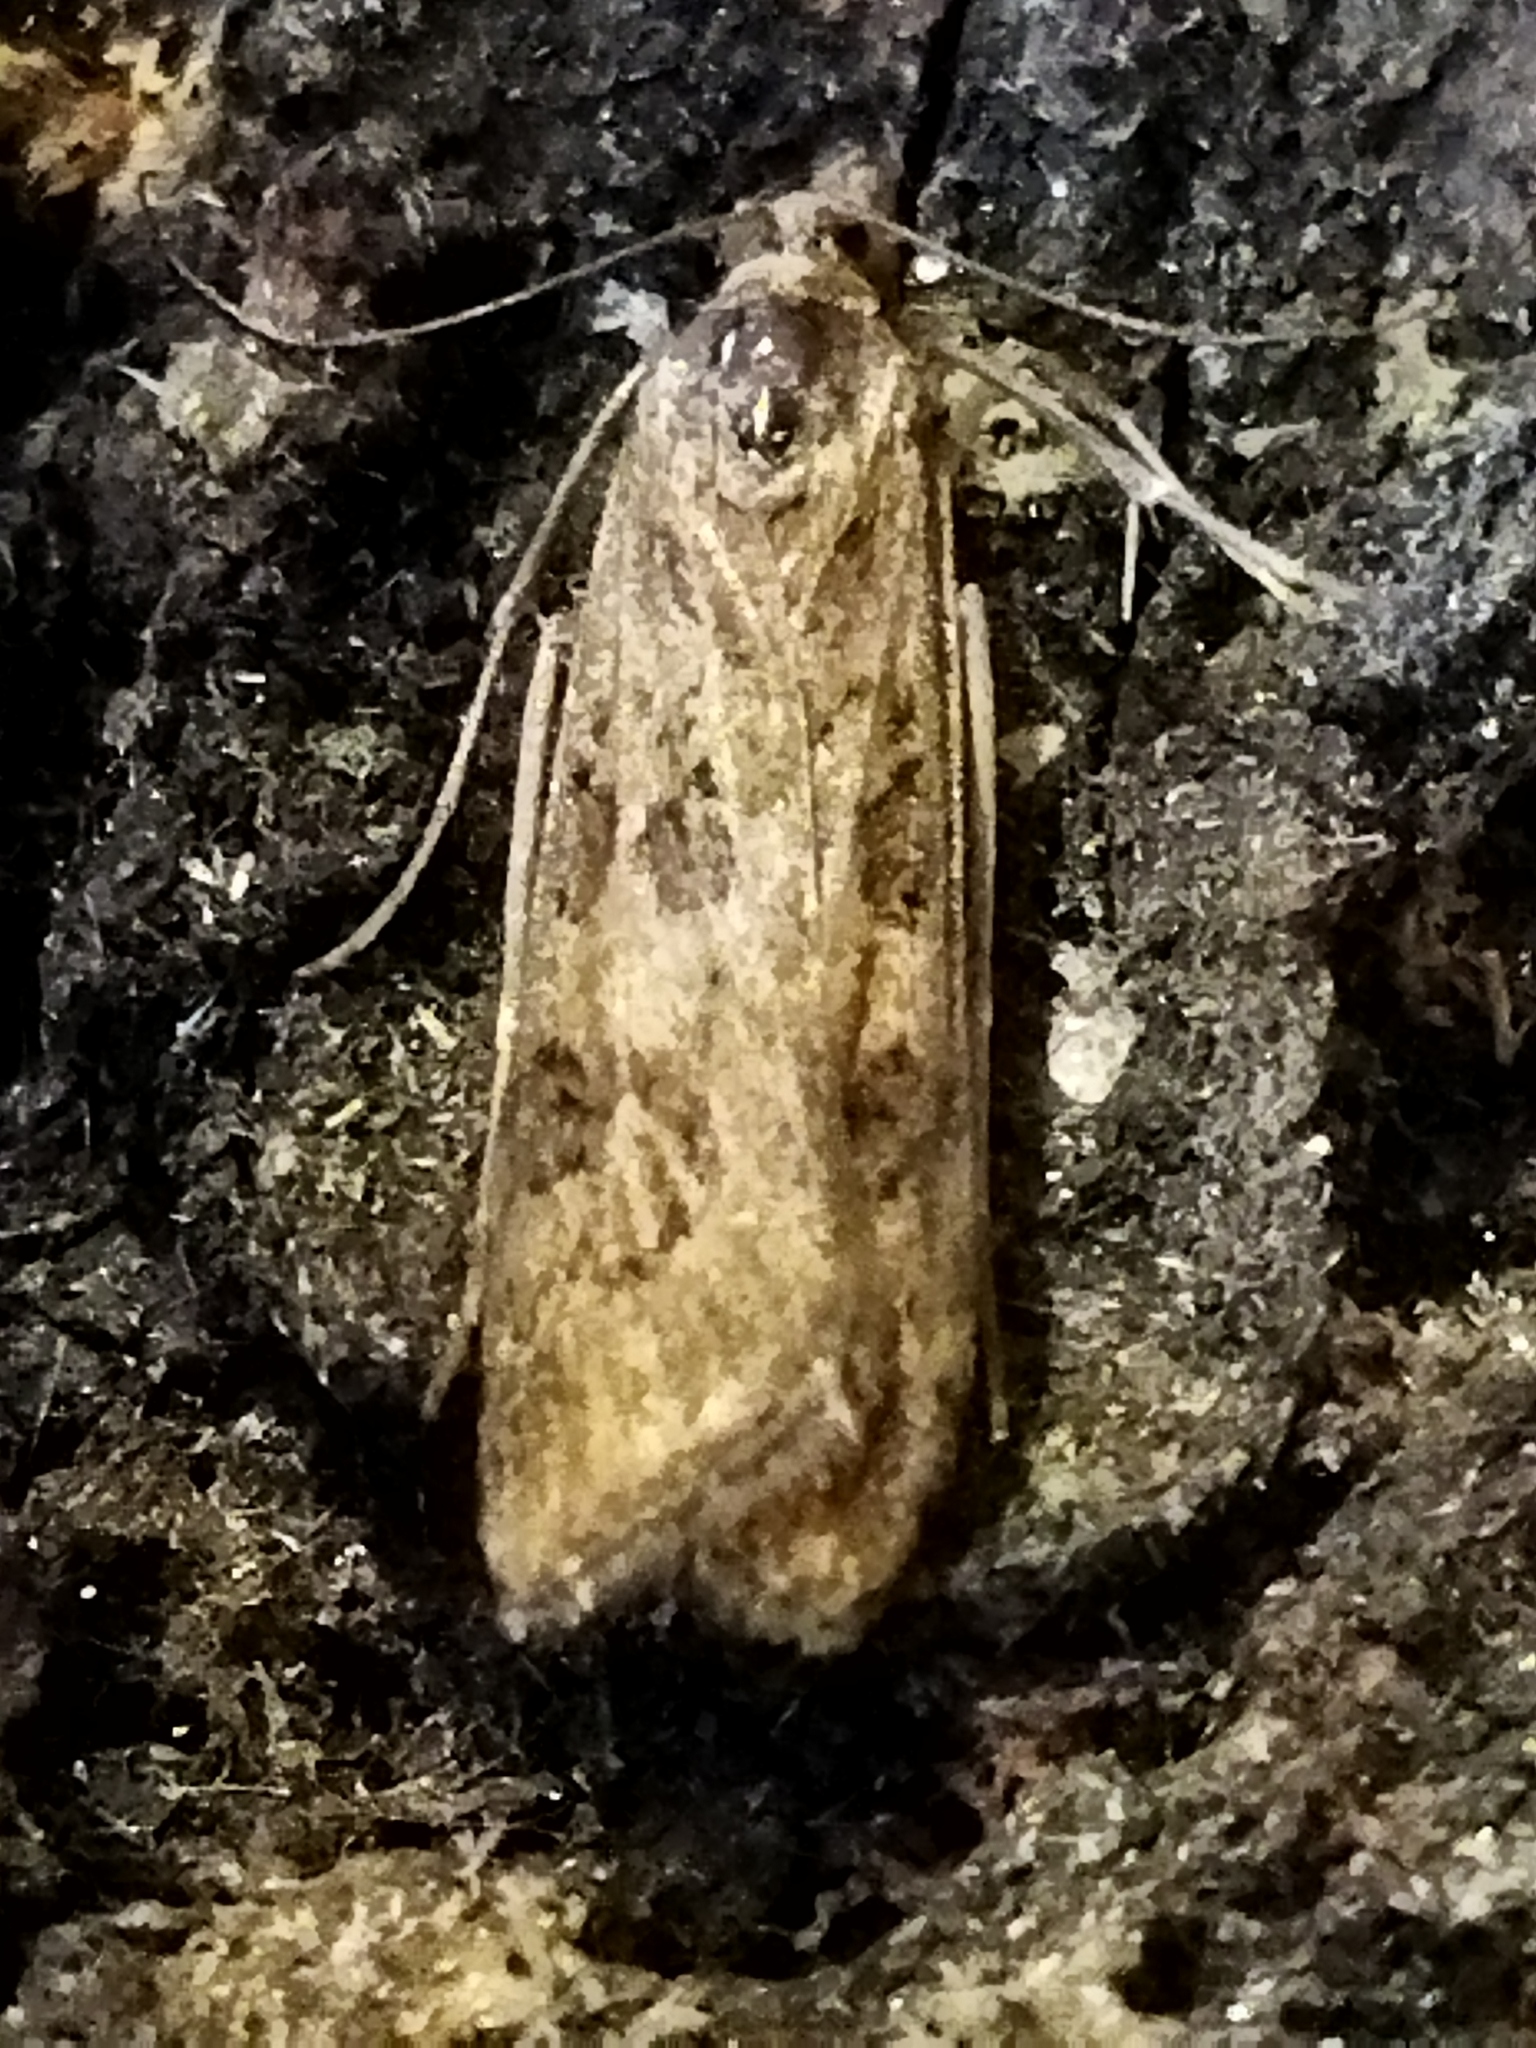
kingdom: Animalia
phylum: Arthropoda
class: Insecta
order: Lepidoptera
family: Crambidae
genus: Nomophila
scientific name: Nomophila noctuella
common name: Rush veneer
